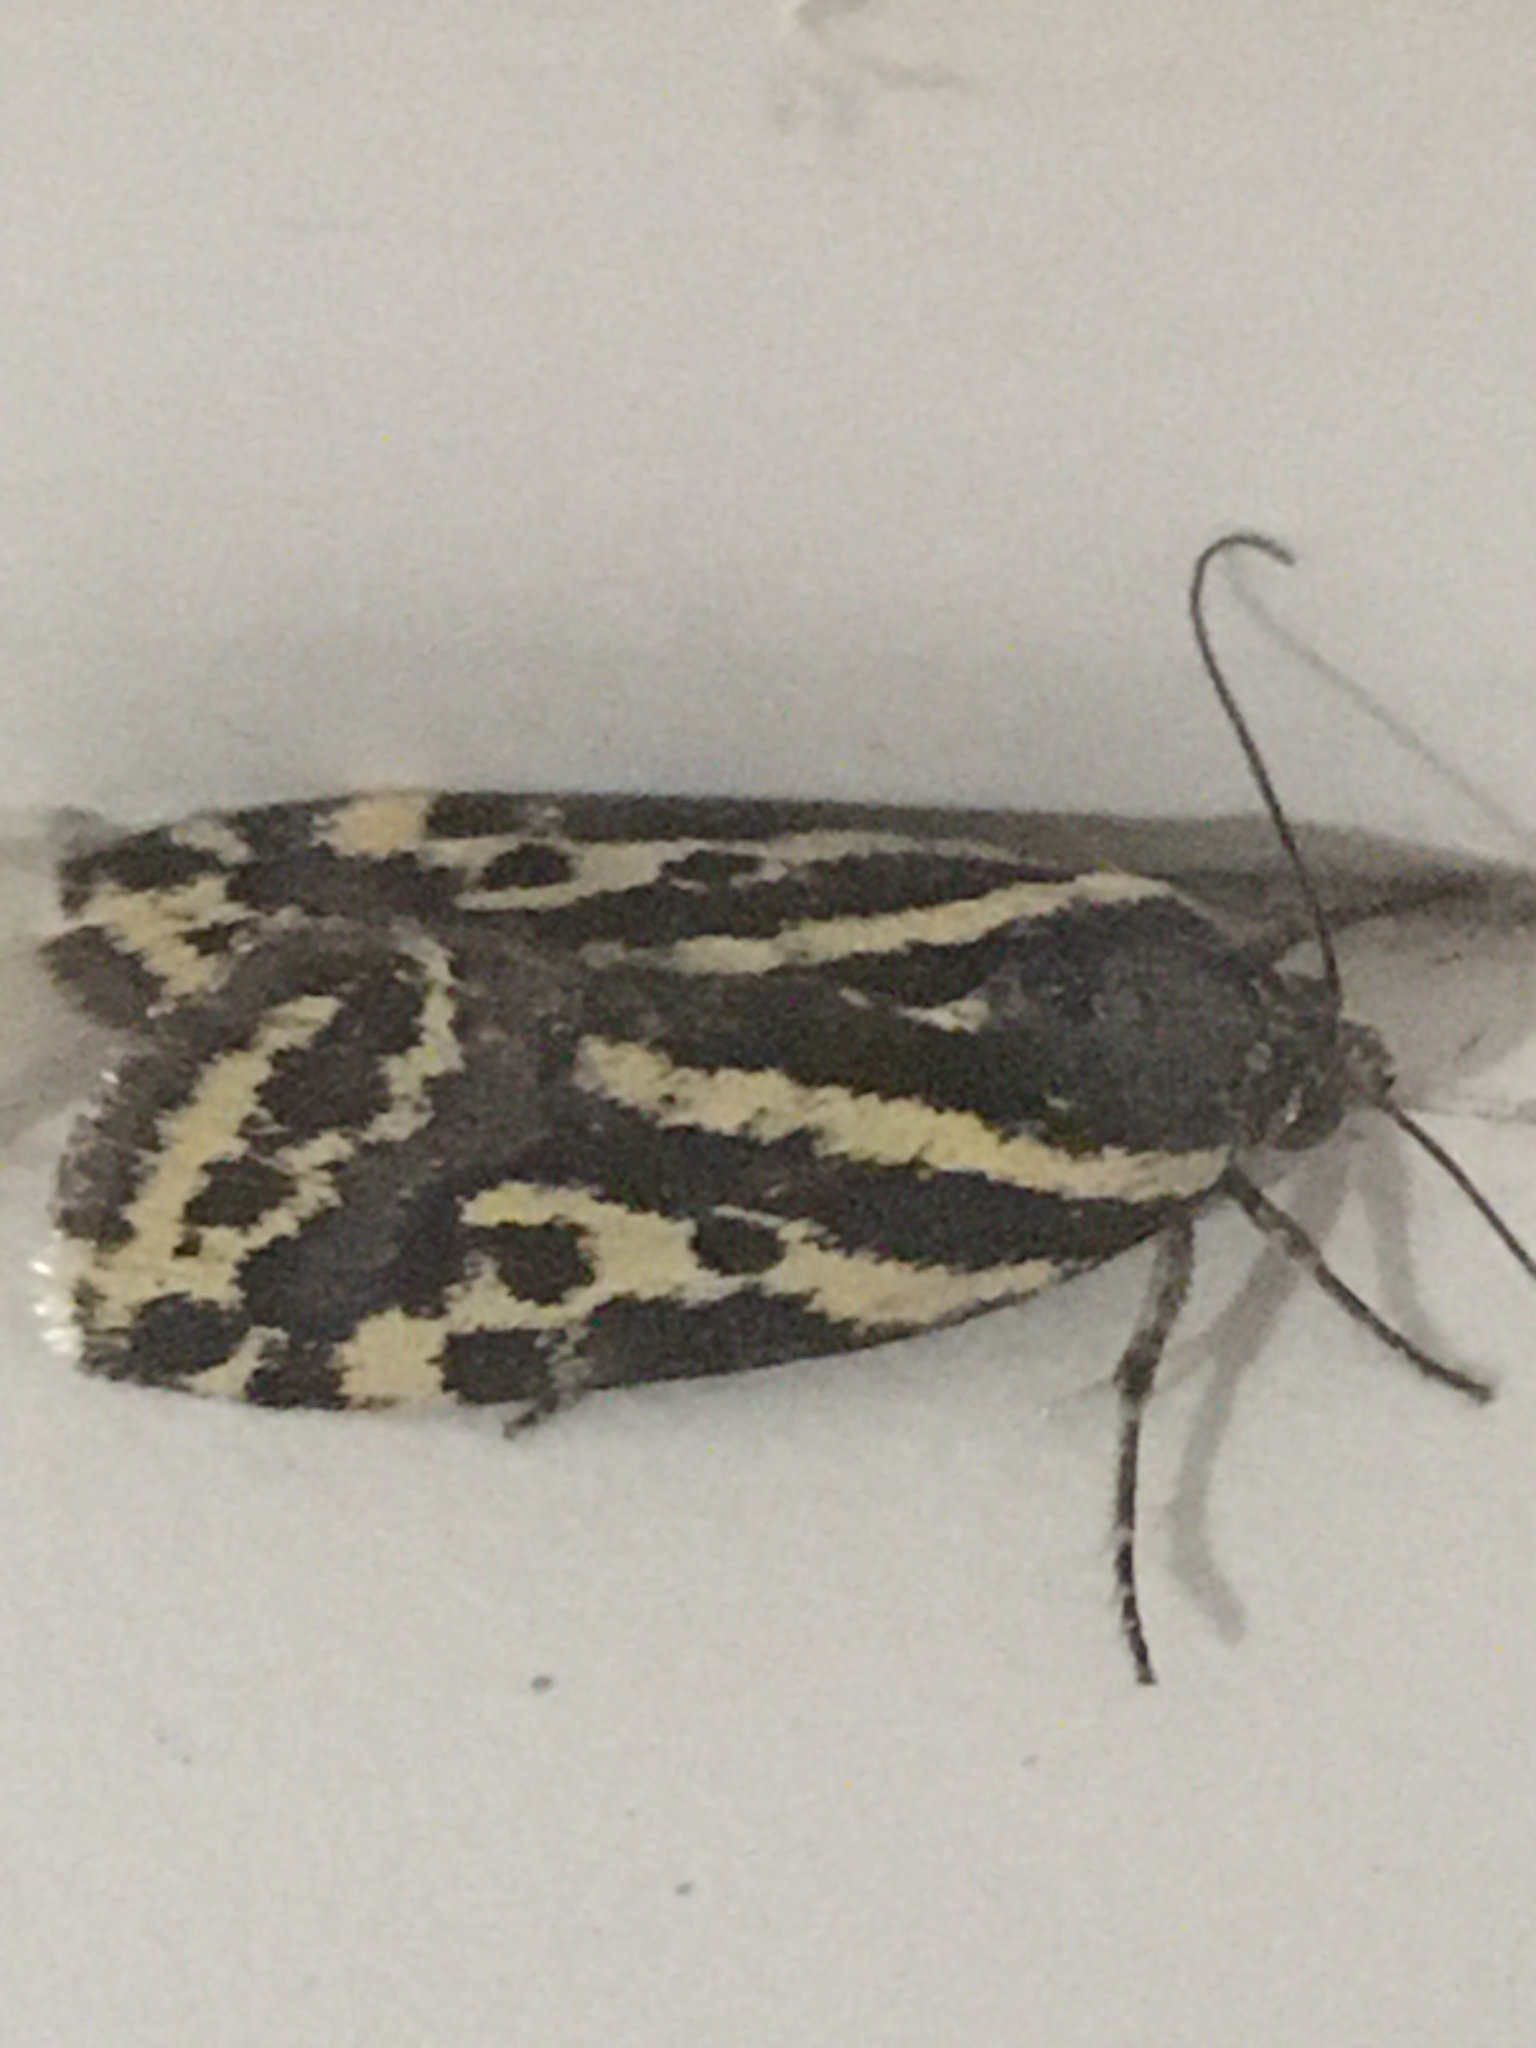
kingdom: Animalia
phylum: Arthropoda
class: Insecta
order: Lepidoptera
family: Noctuidae
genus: Acontia
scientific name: Acontia trabealis
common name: Spotted sulphur
